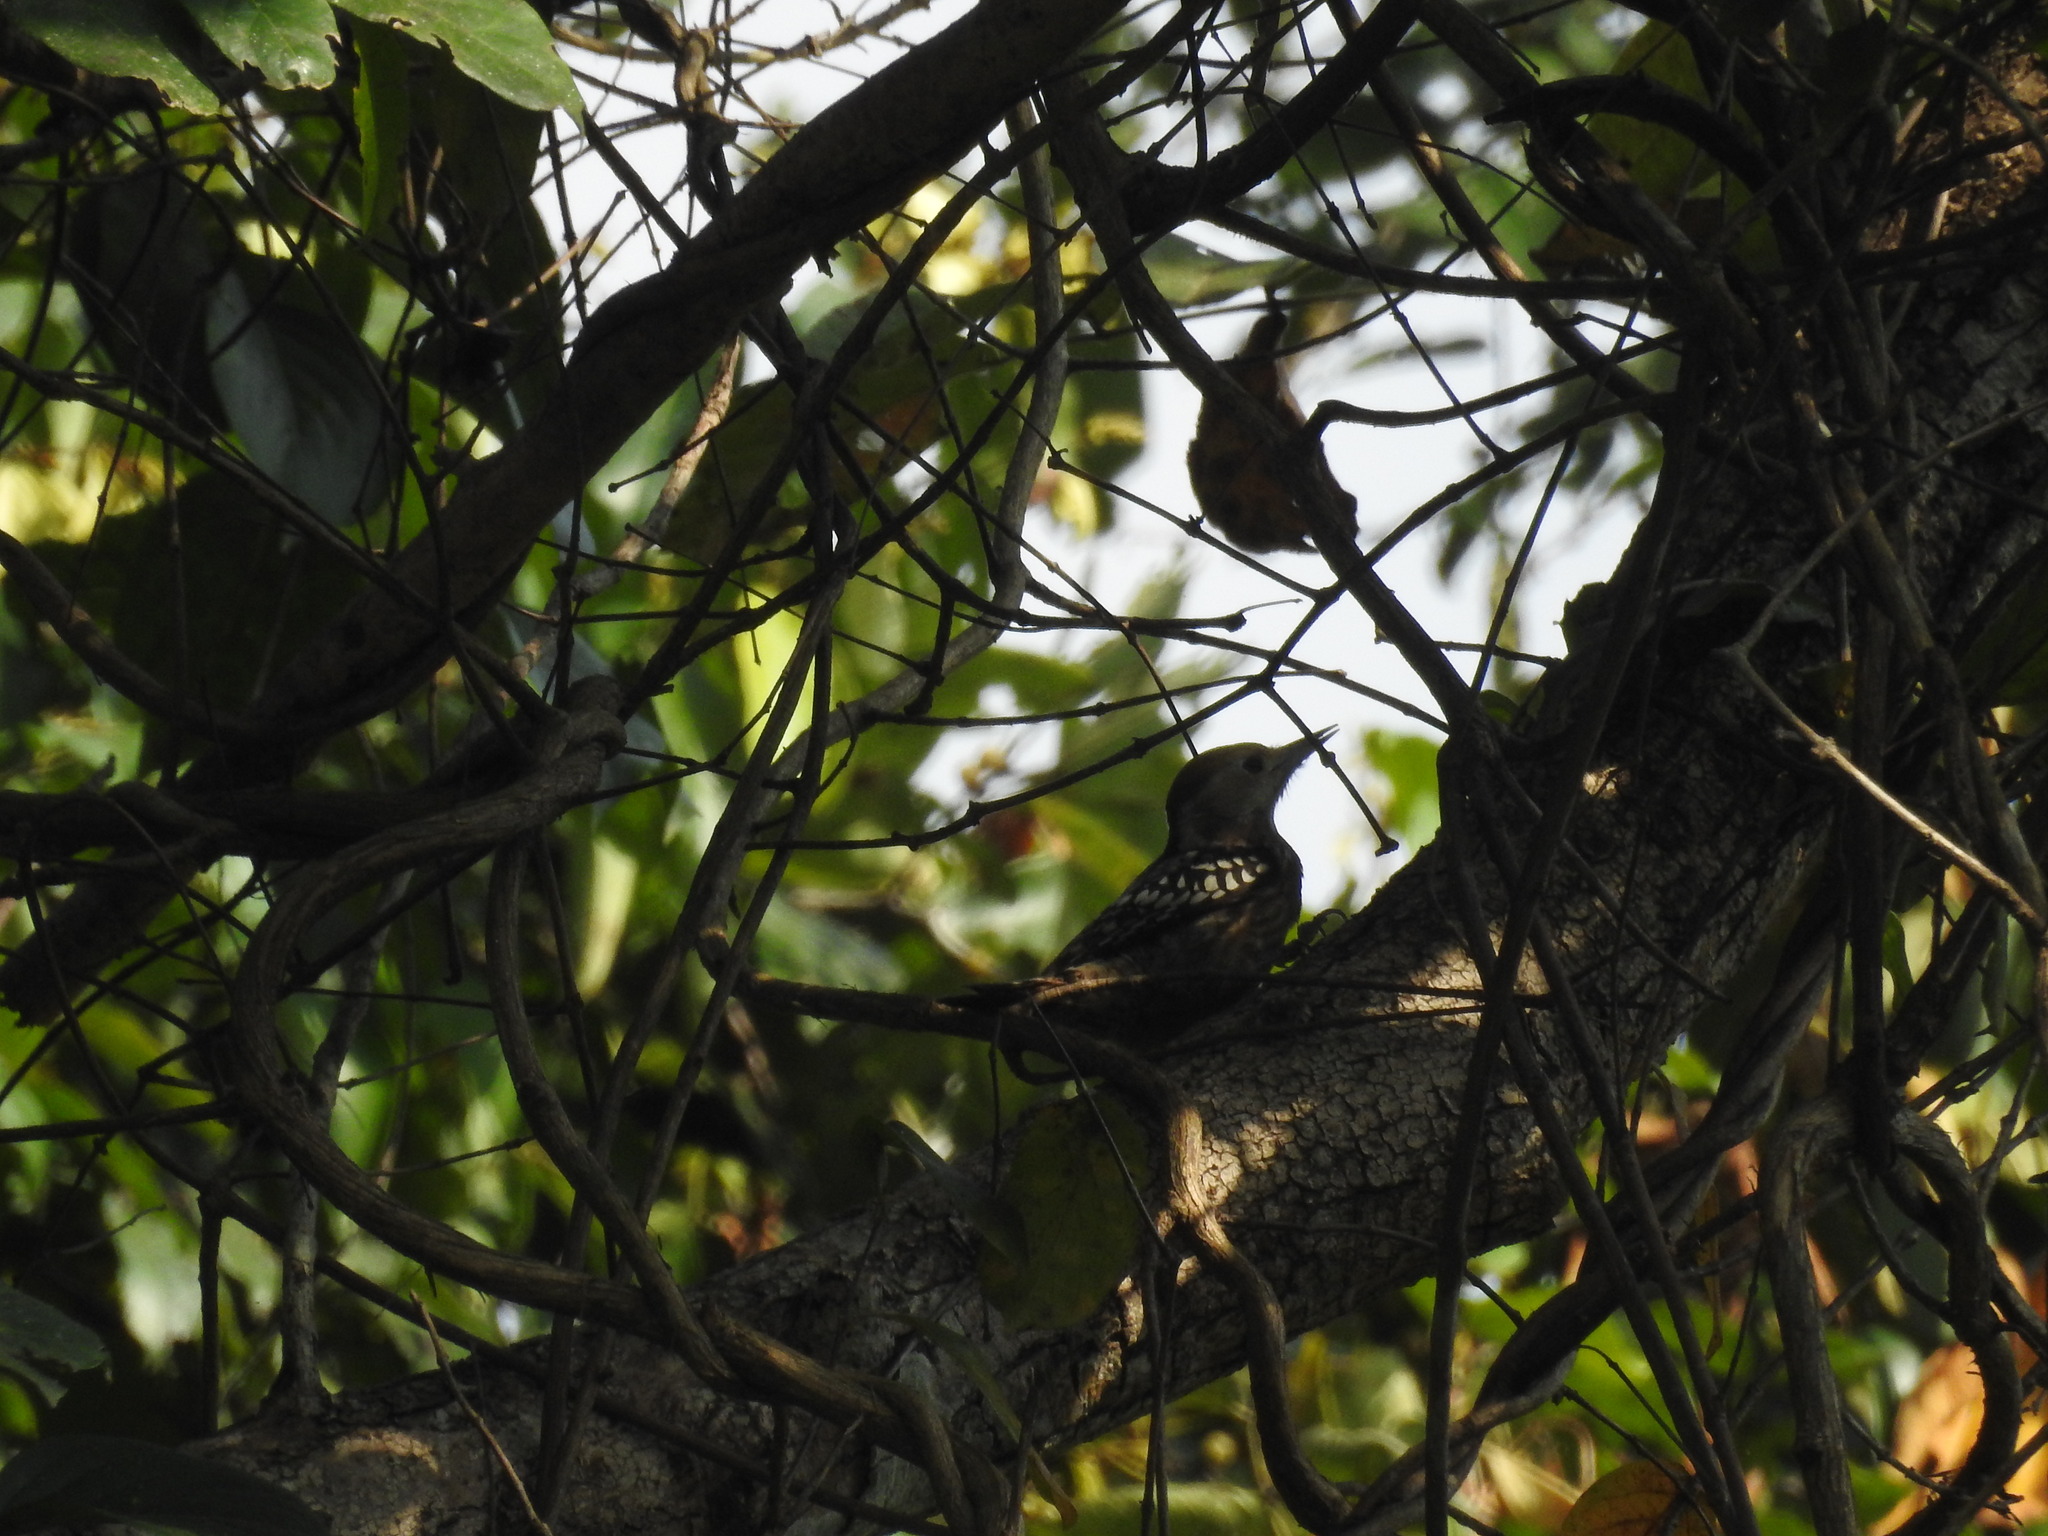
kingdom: Animalia
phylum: Chordata
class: Aves
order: Piciformes
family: Picidae
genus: Leiopicus
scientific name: Leiopicus mahrattensis
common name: Yellow-crowned woodpecker
